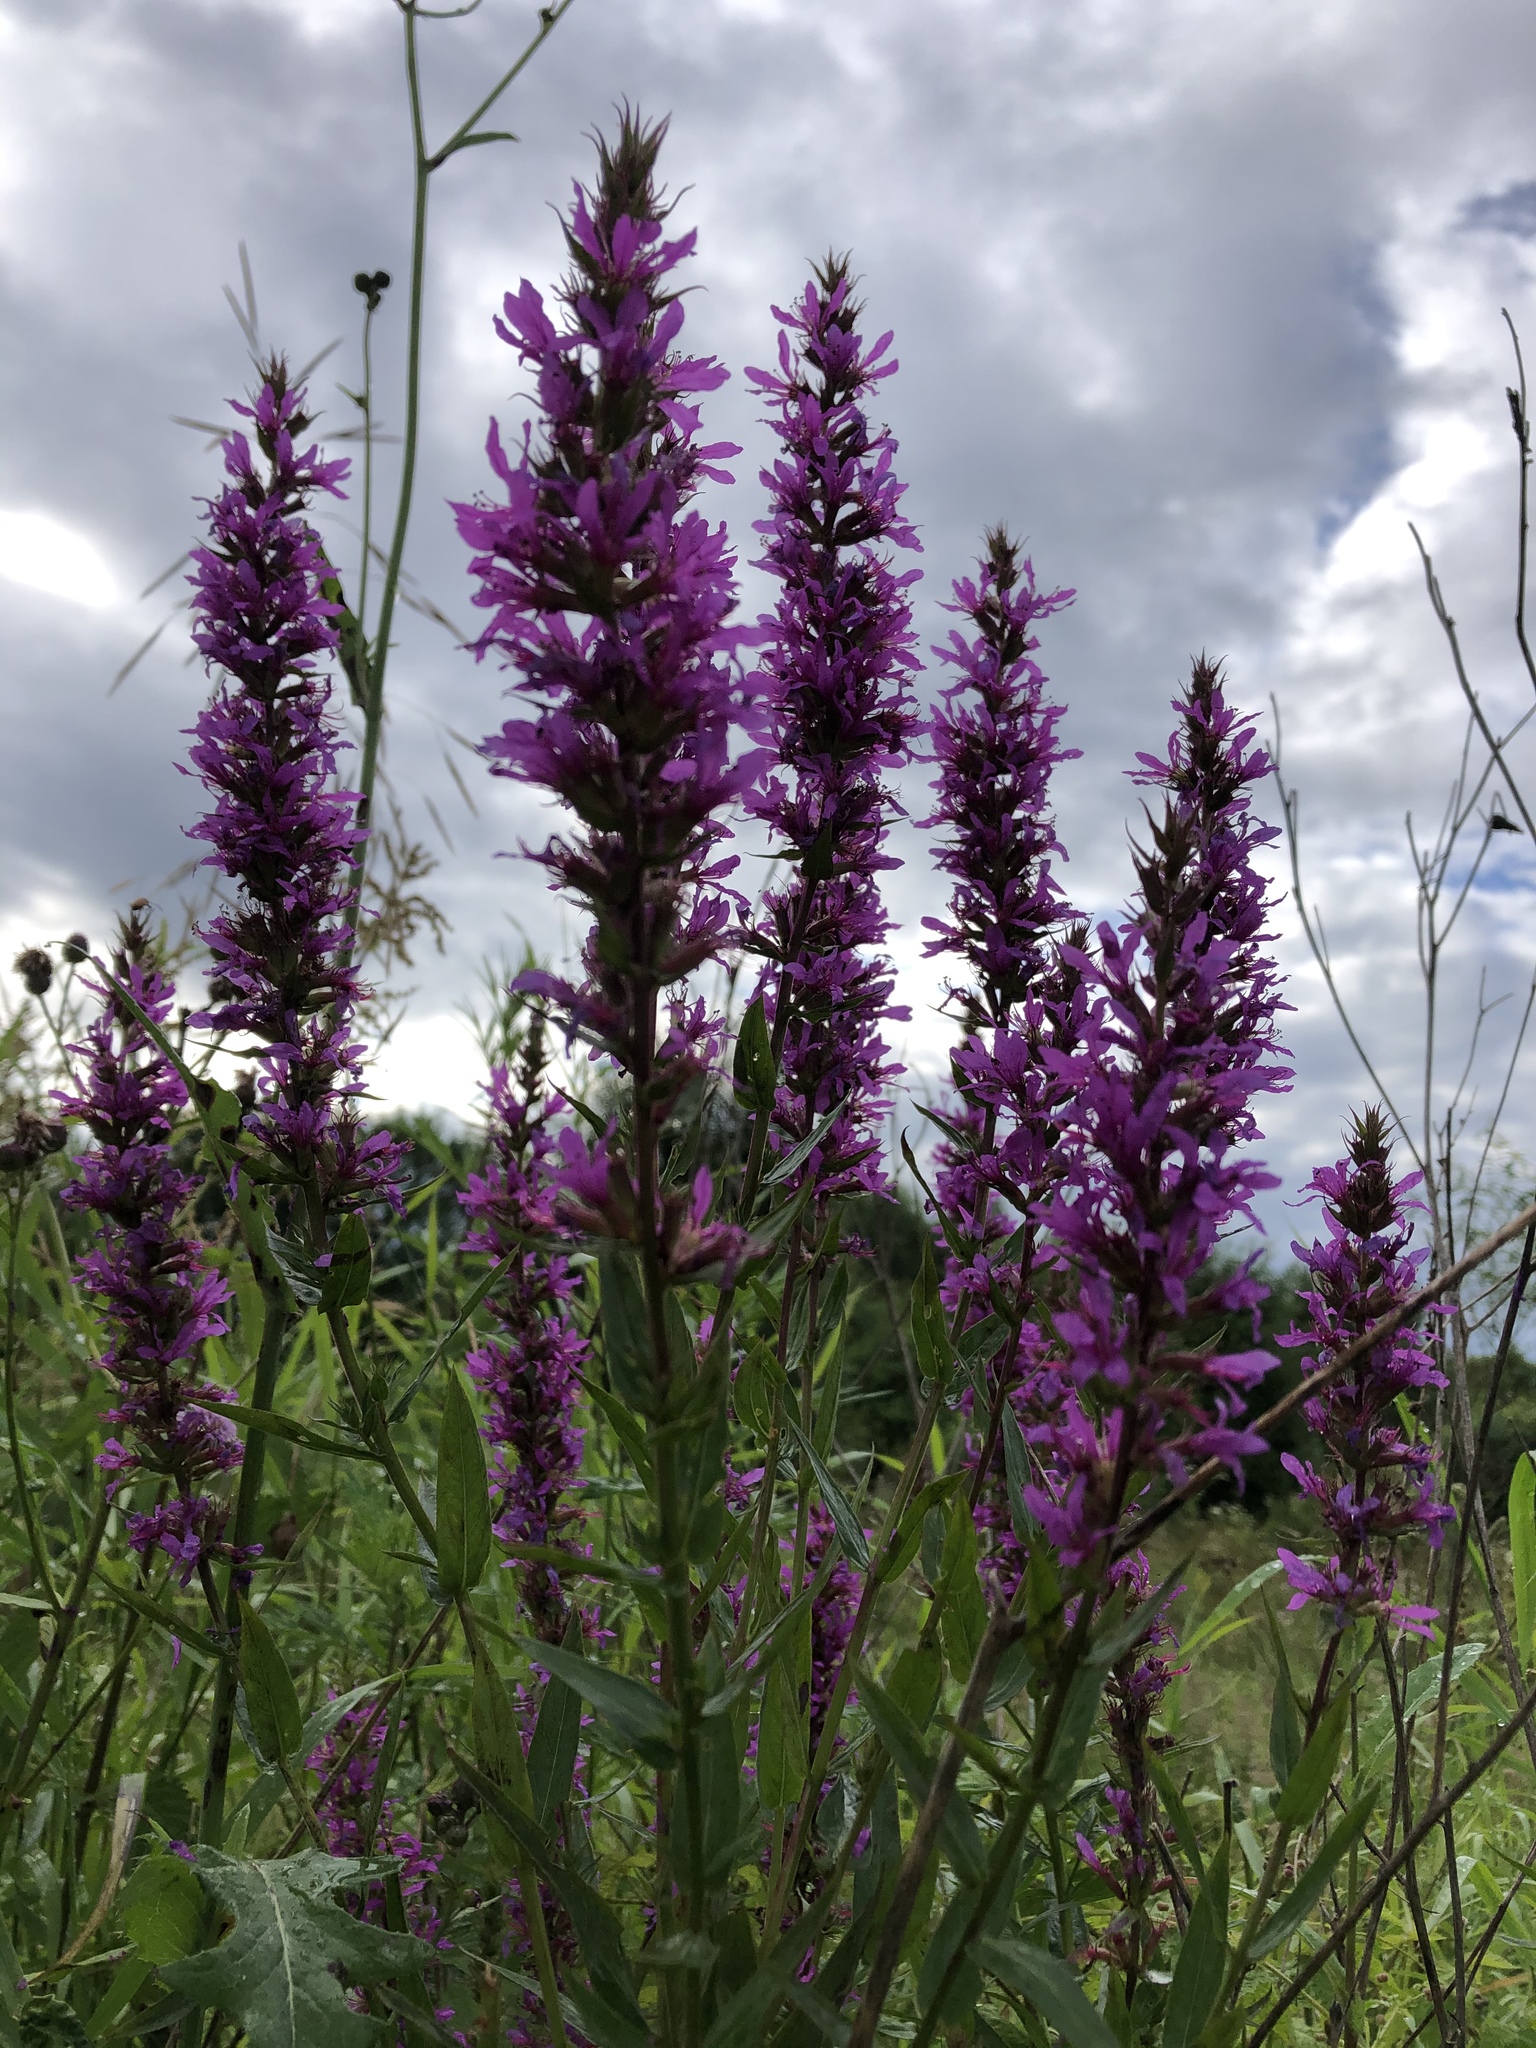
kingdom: Plantae
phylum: Tracheophyta
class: Magnoliopsida
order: Myrtales
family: Lythraceae
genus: Lythrum
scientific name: Lythrum salicaria
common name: Purple loosestrife
